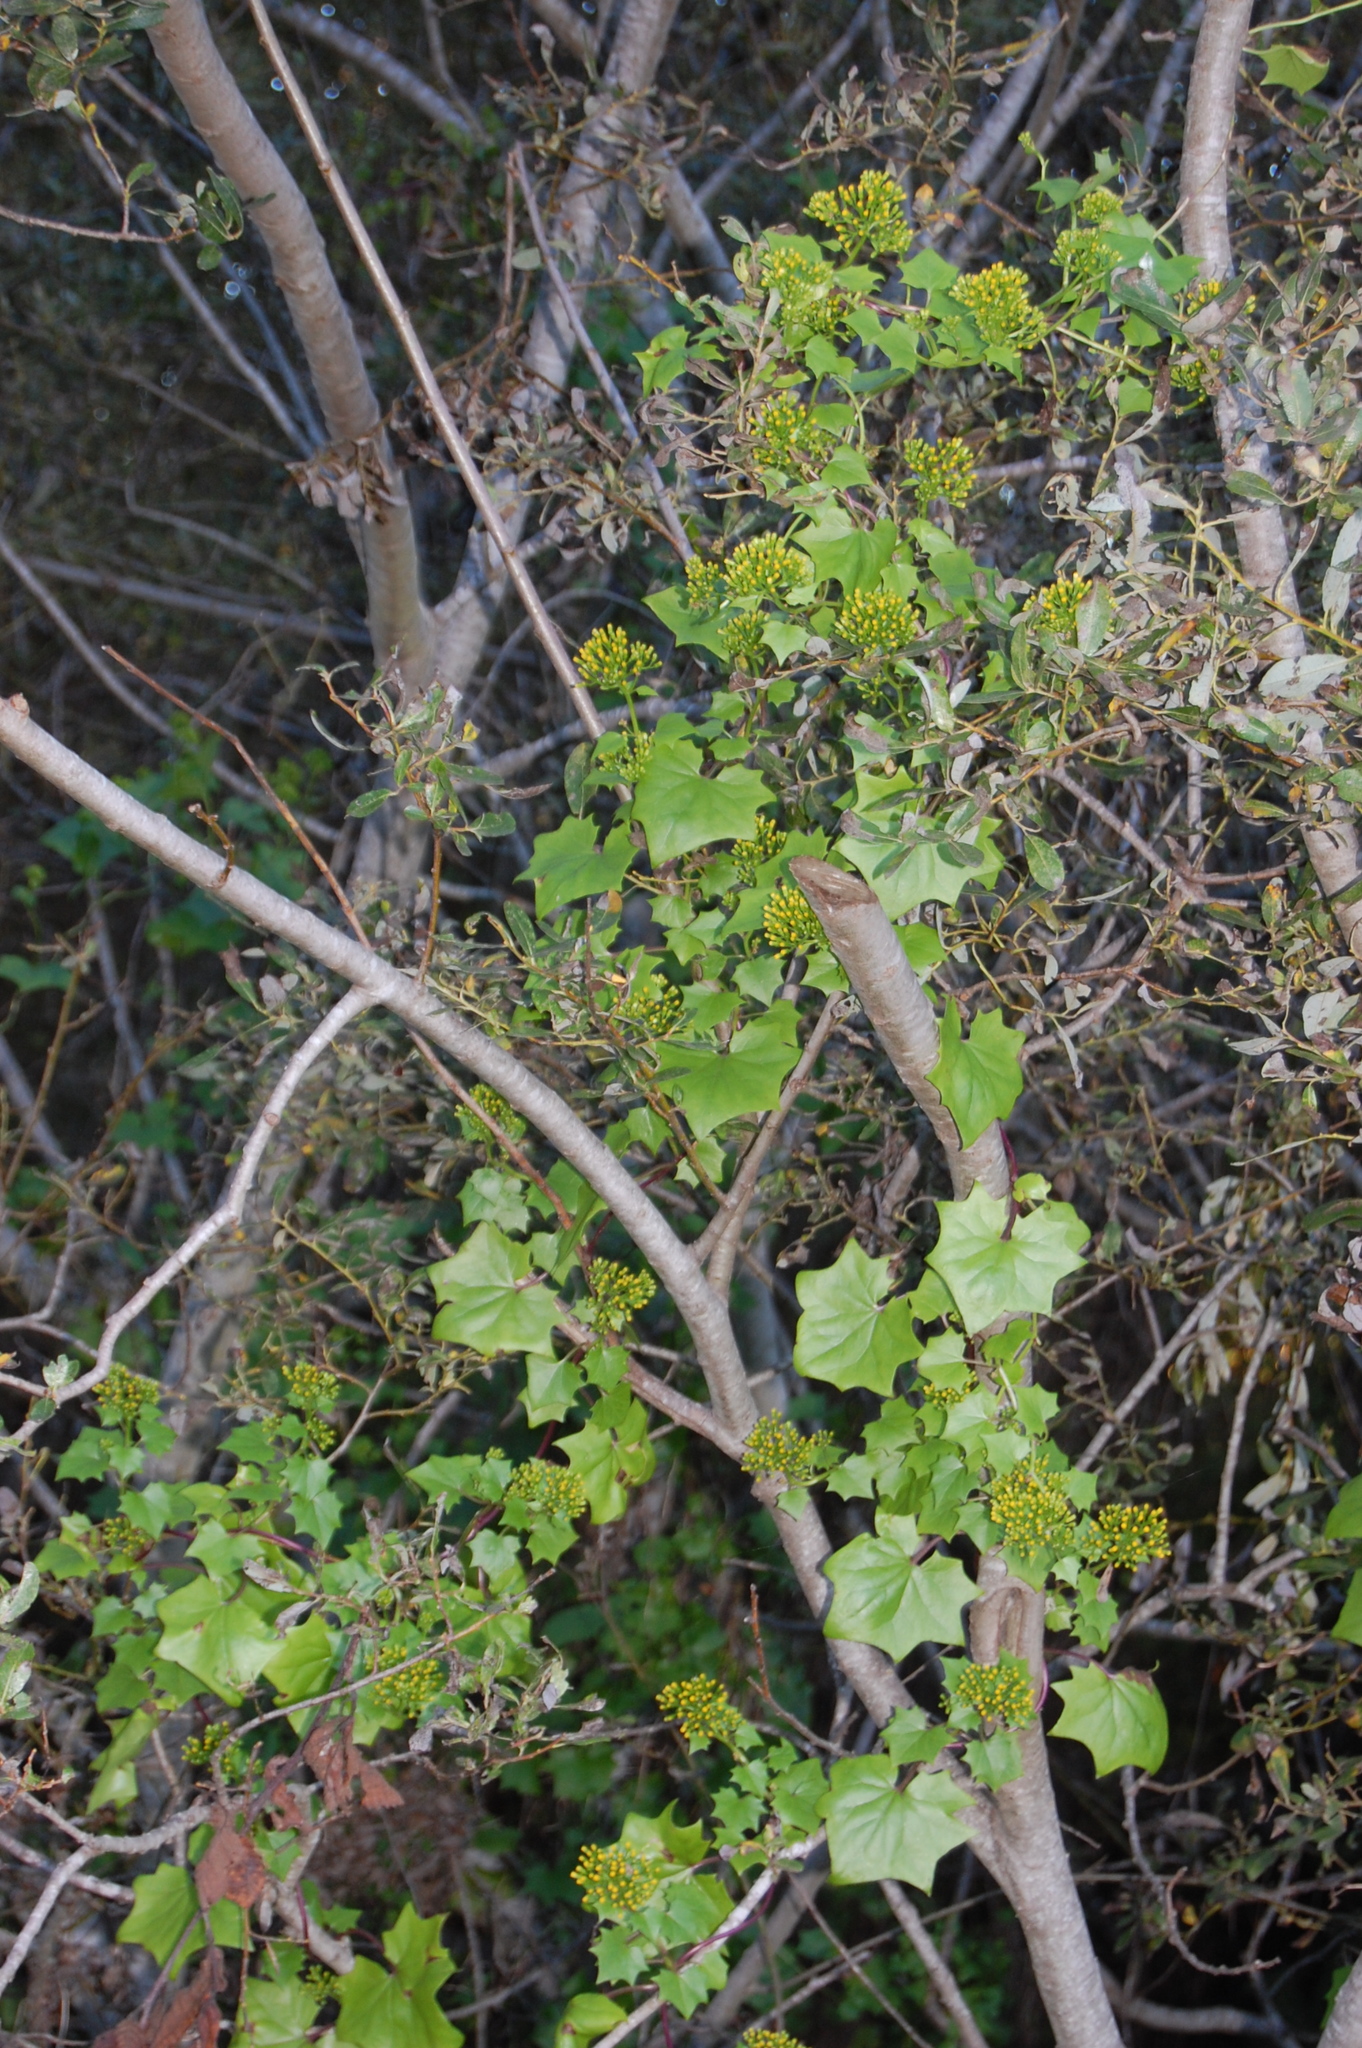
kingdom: Plantae
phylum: Tracheophyta
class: Magnoliopsida
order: Asterales
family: Asteraceae
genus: Delairea
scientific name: Delairea odorata
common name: Cape-ivy
